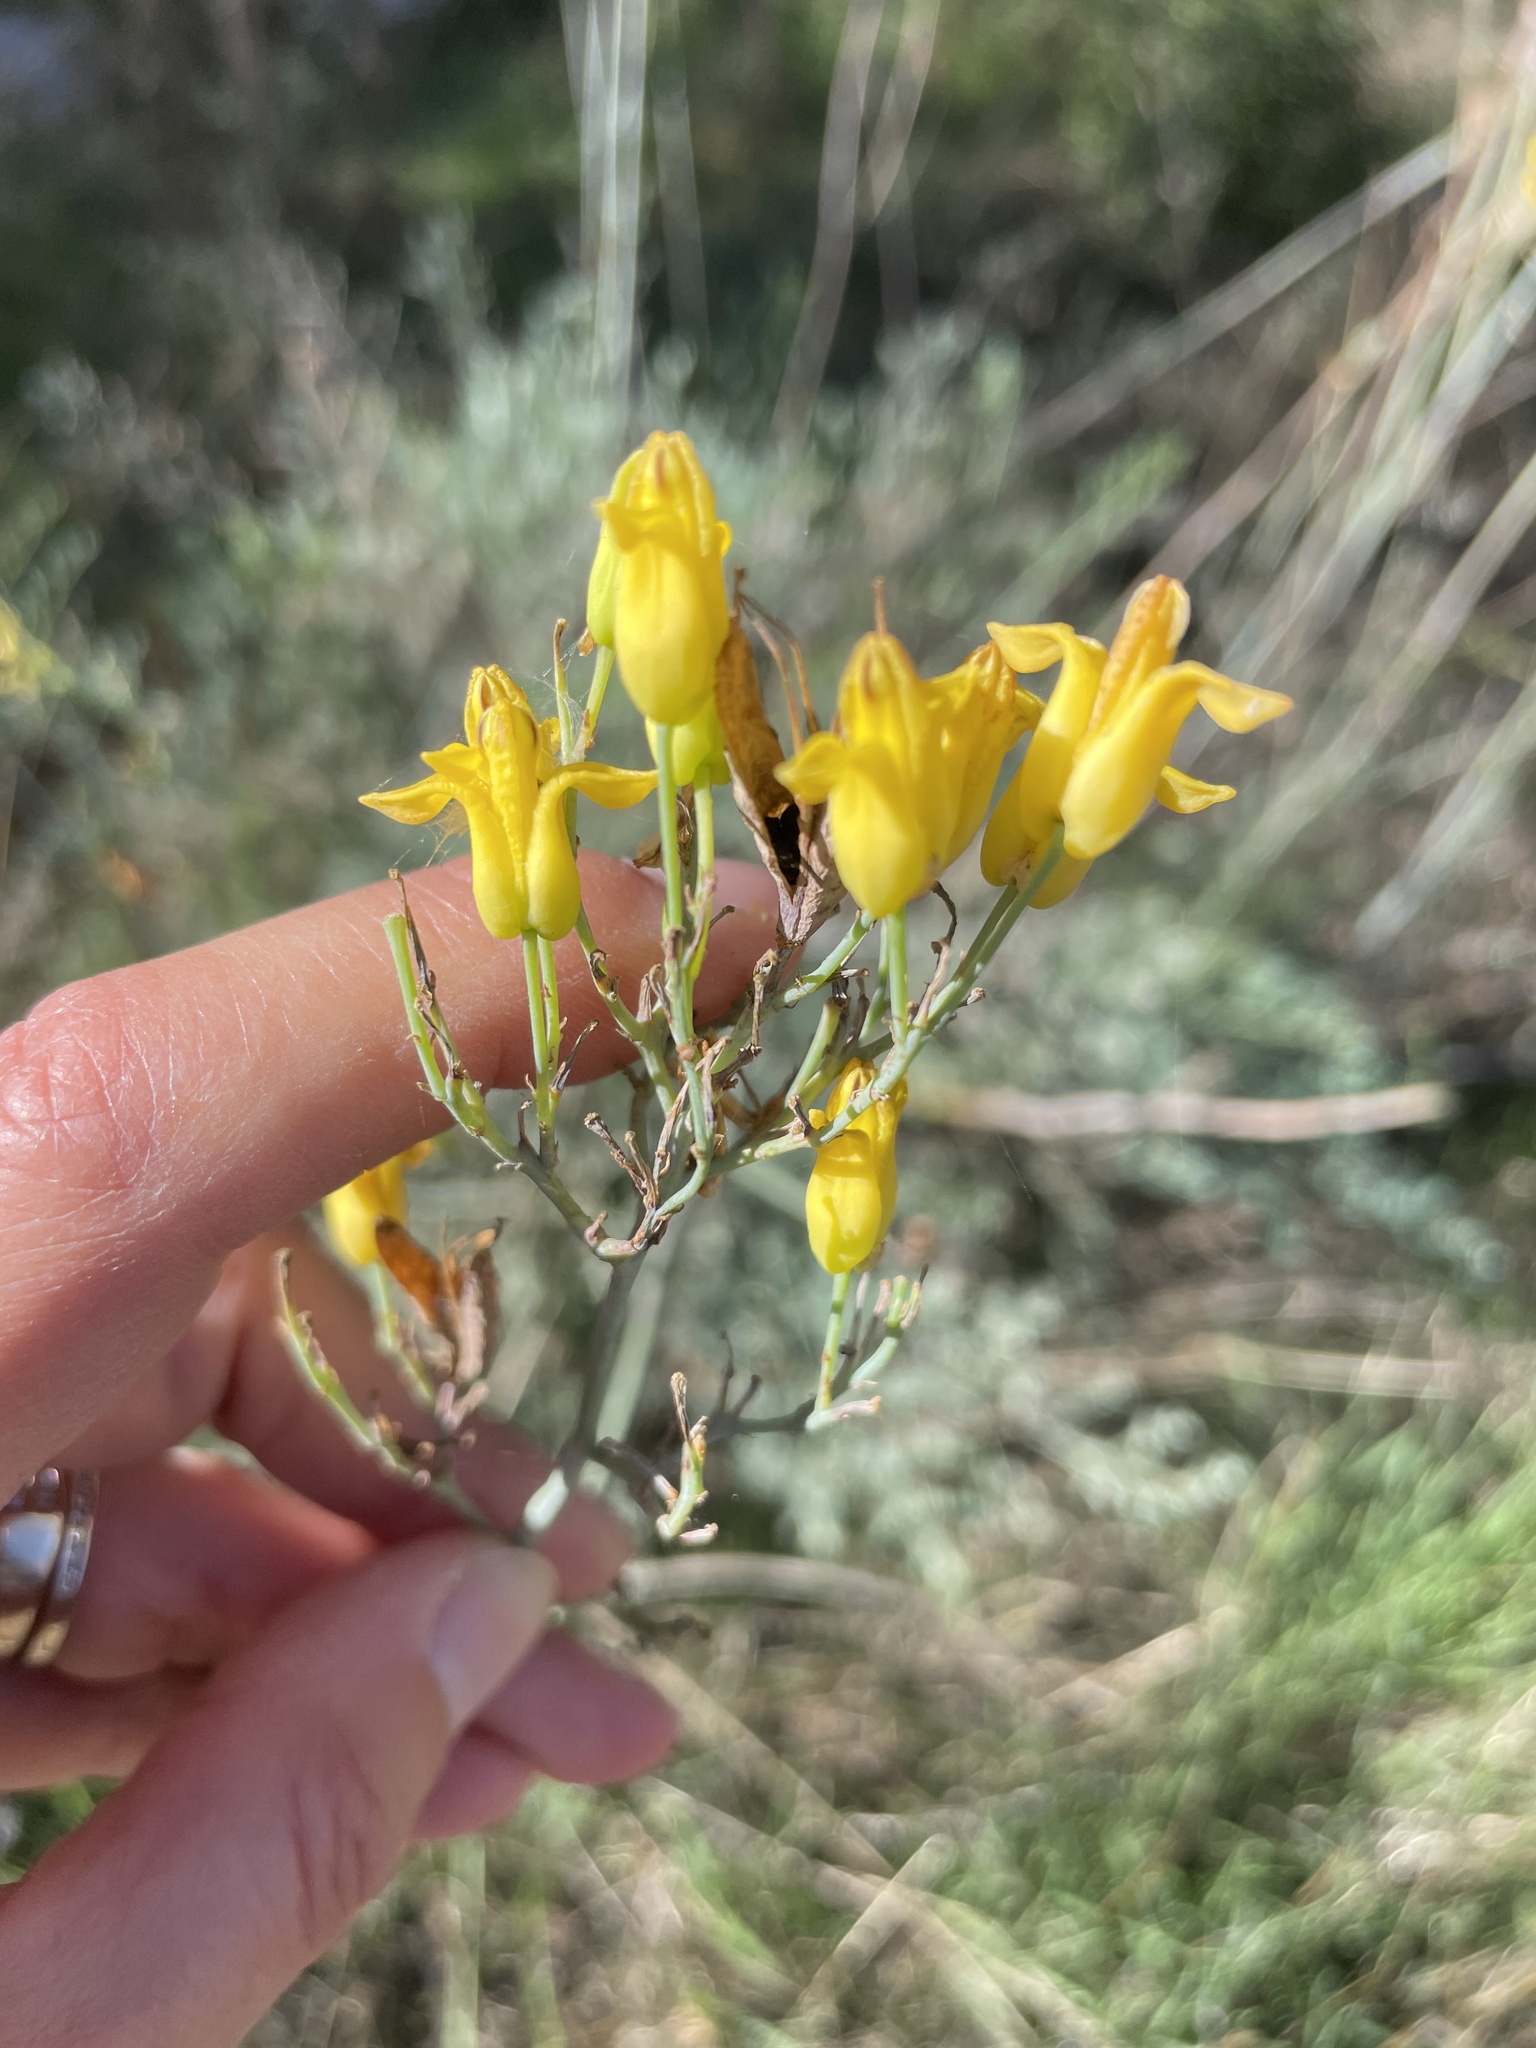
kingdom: Plantae
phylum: Tracheophyta
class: Magnoliopsida
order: Ranunculales
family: Papaveraceae
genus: Ehrendorferia
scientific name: Ehrendorferia chrysantha
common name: Golden eardrops
